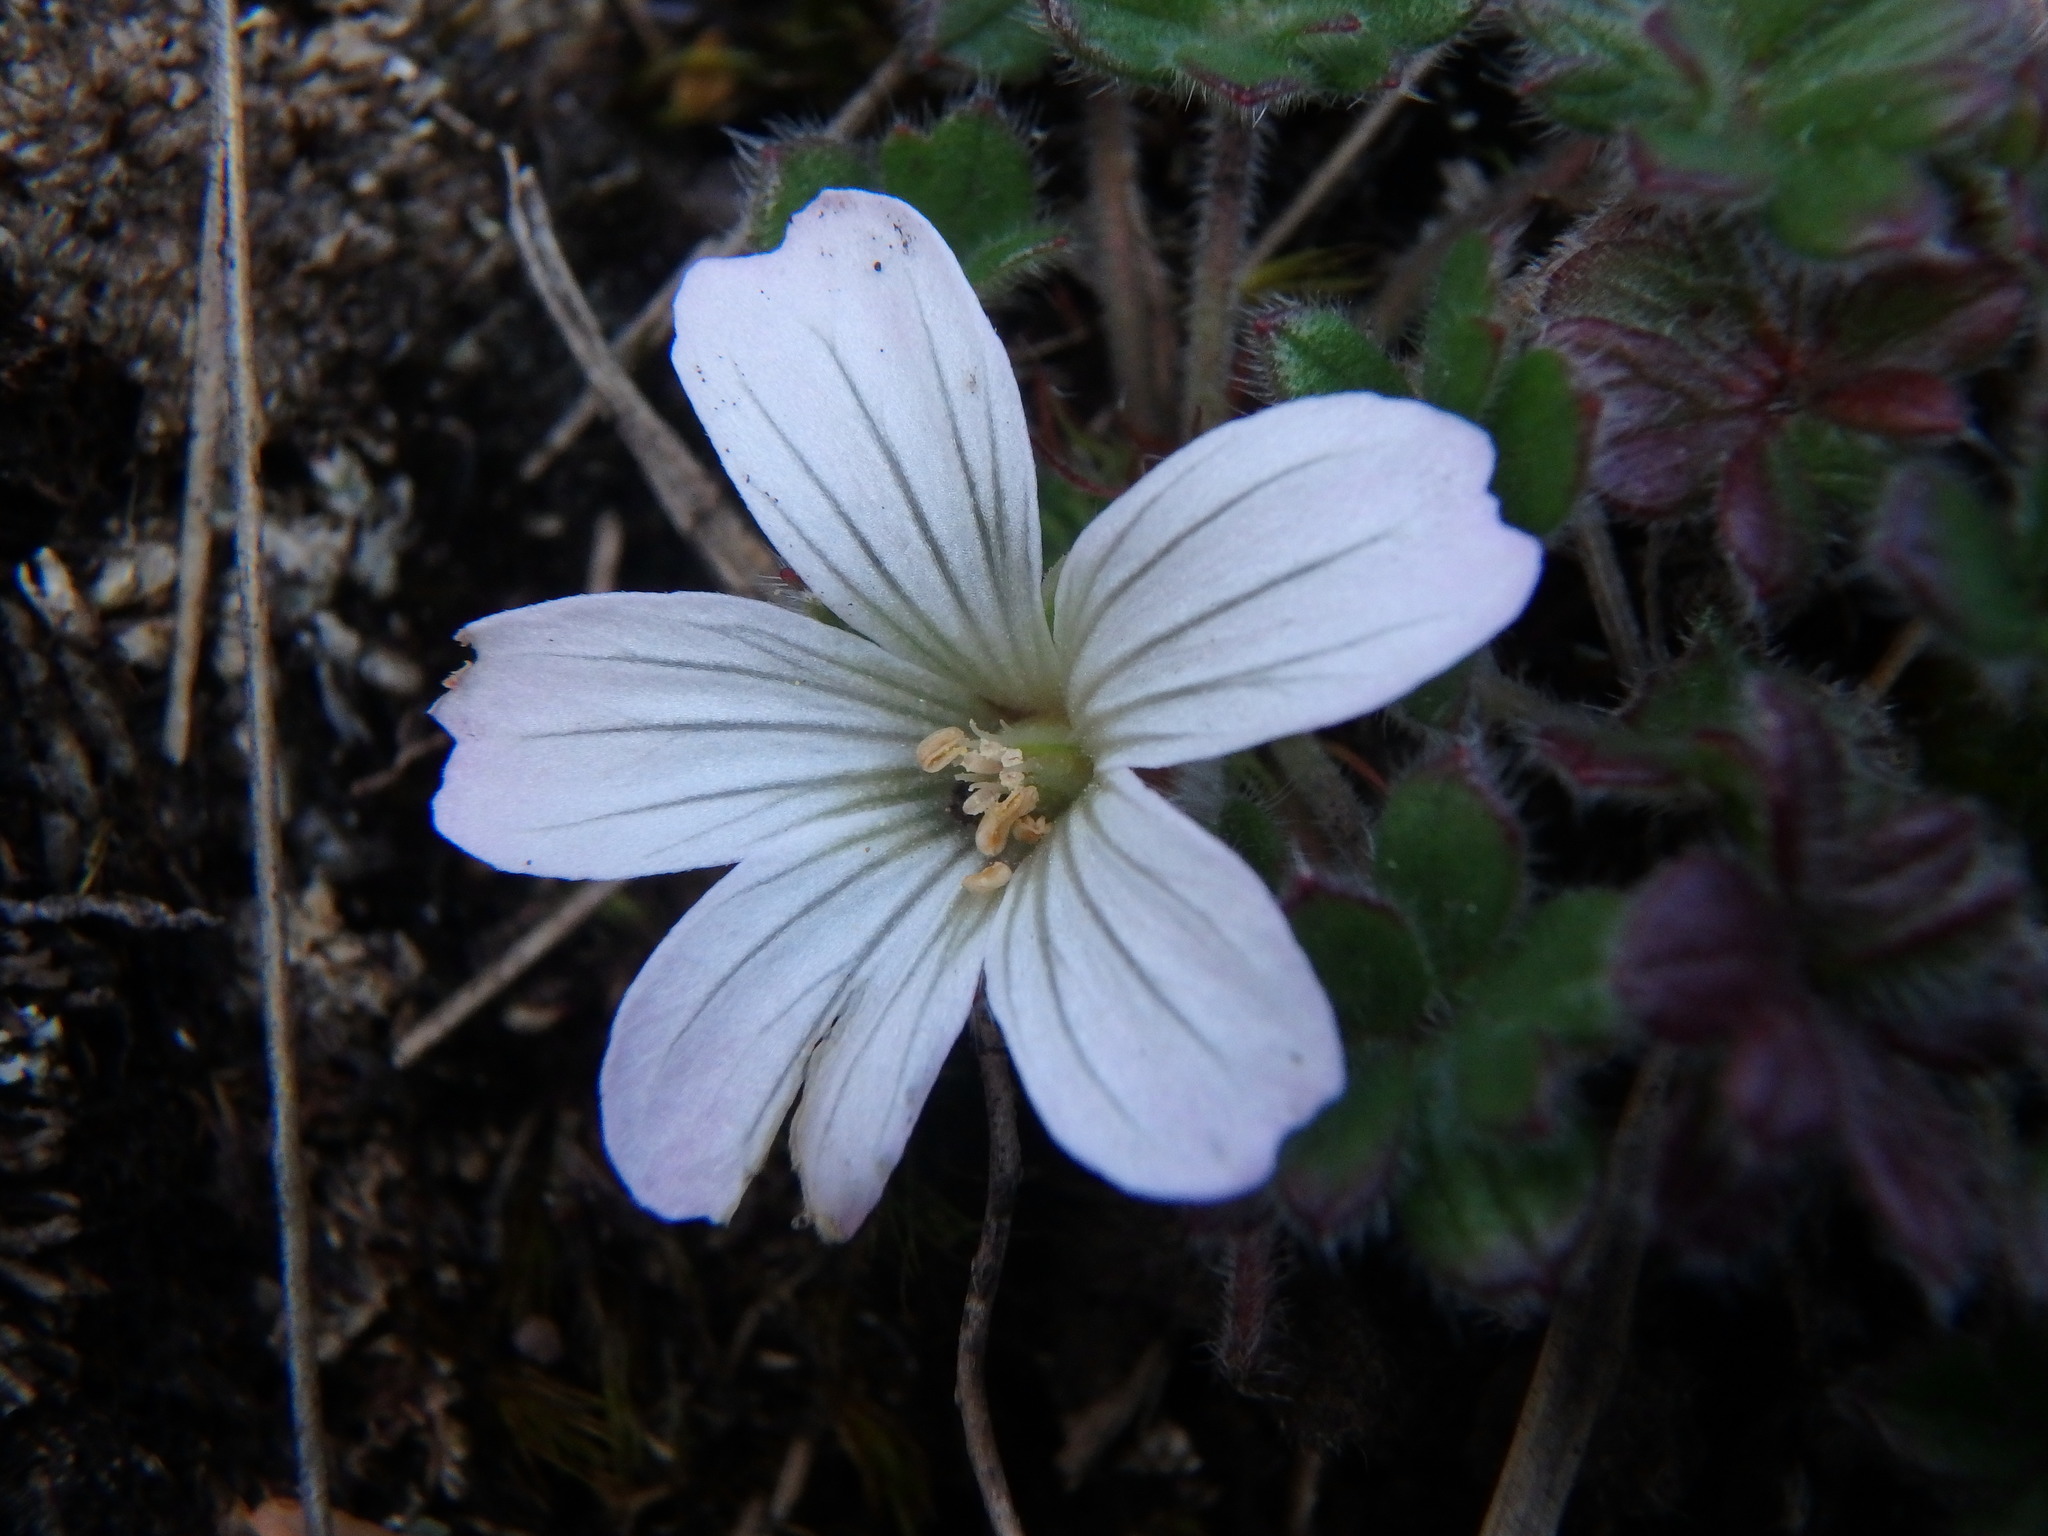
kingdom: Plantae
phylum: Tracheophyta
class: Magnoliopsida
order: Geraniales
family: Geraniaceae
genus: Geranium
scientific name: Geranium sibbaldioides
